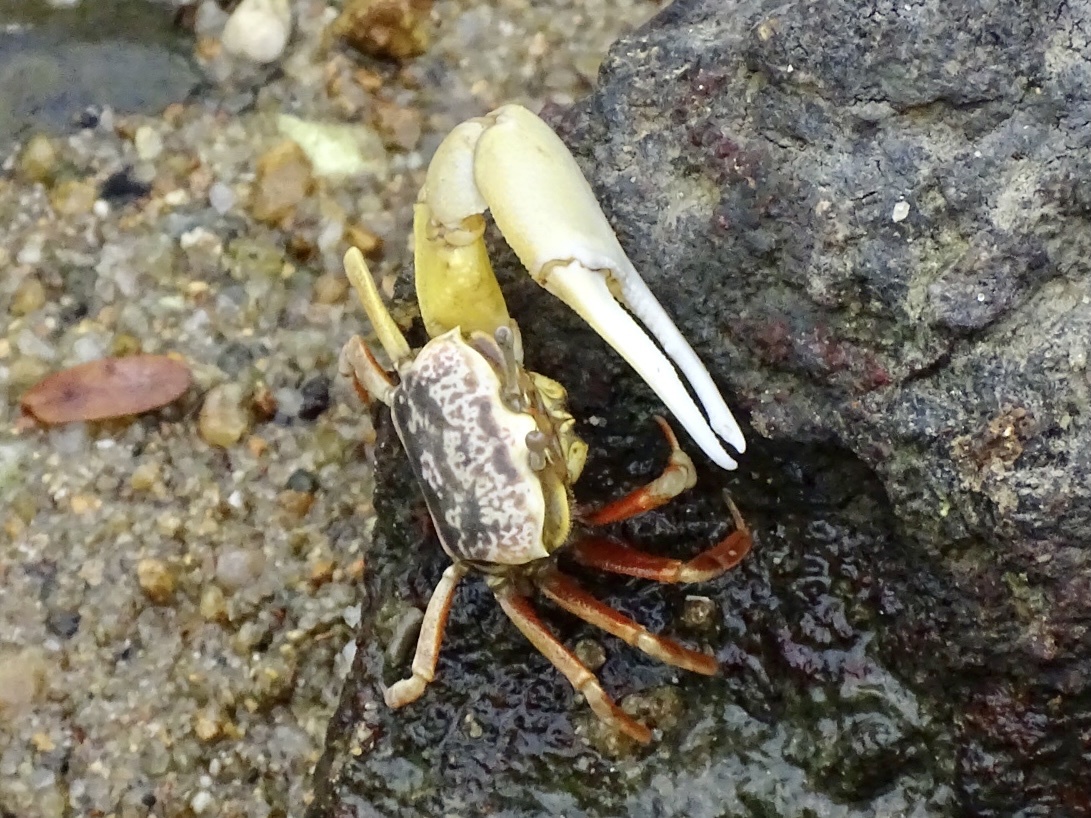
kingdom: Animalia
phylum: Arthropoda
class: Malacostraca
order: Decapoda
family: Ocypodidae
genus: Austruca
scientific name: Austruca lactea
